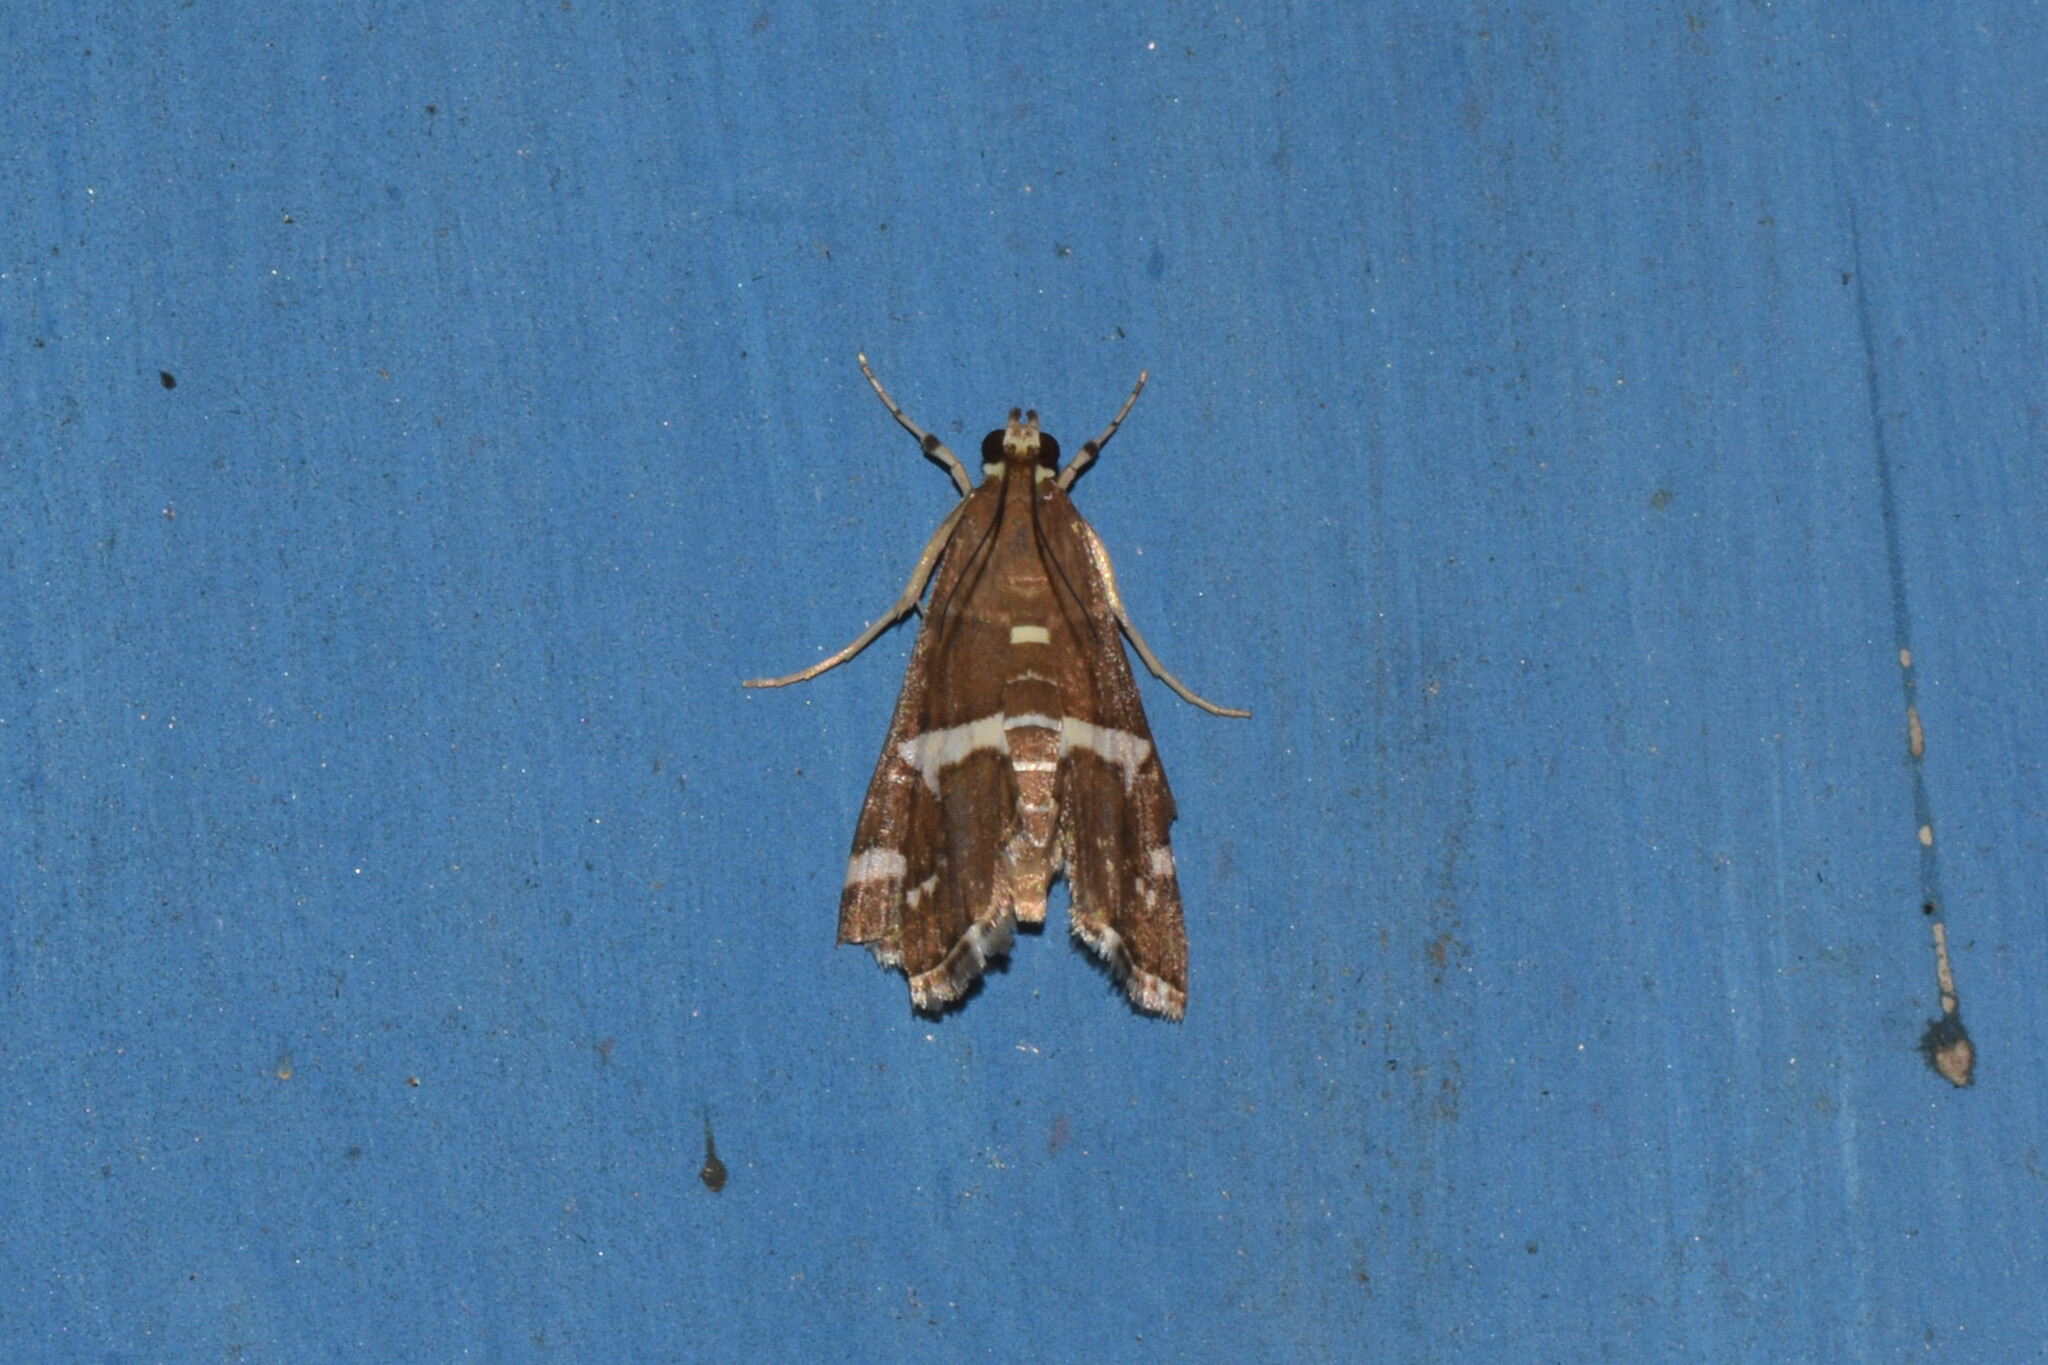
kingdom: Animalia
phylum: Arthropoda
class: Insecta
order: Lepidoptera
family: Crambidae
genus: Spoladea
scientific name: Spoladea recurvalis
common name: Beet webworm moth
